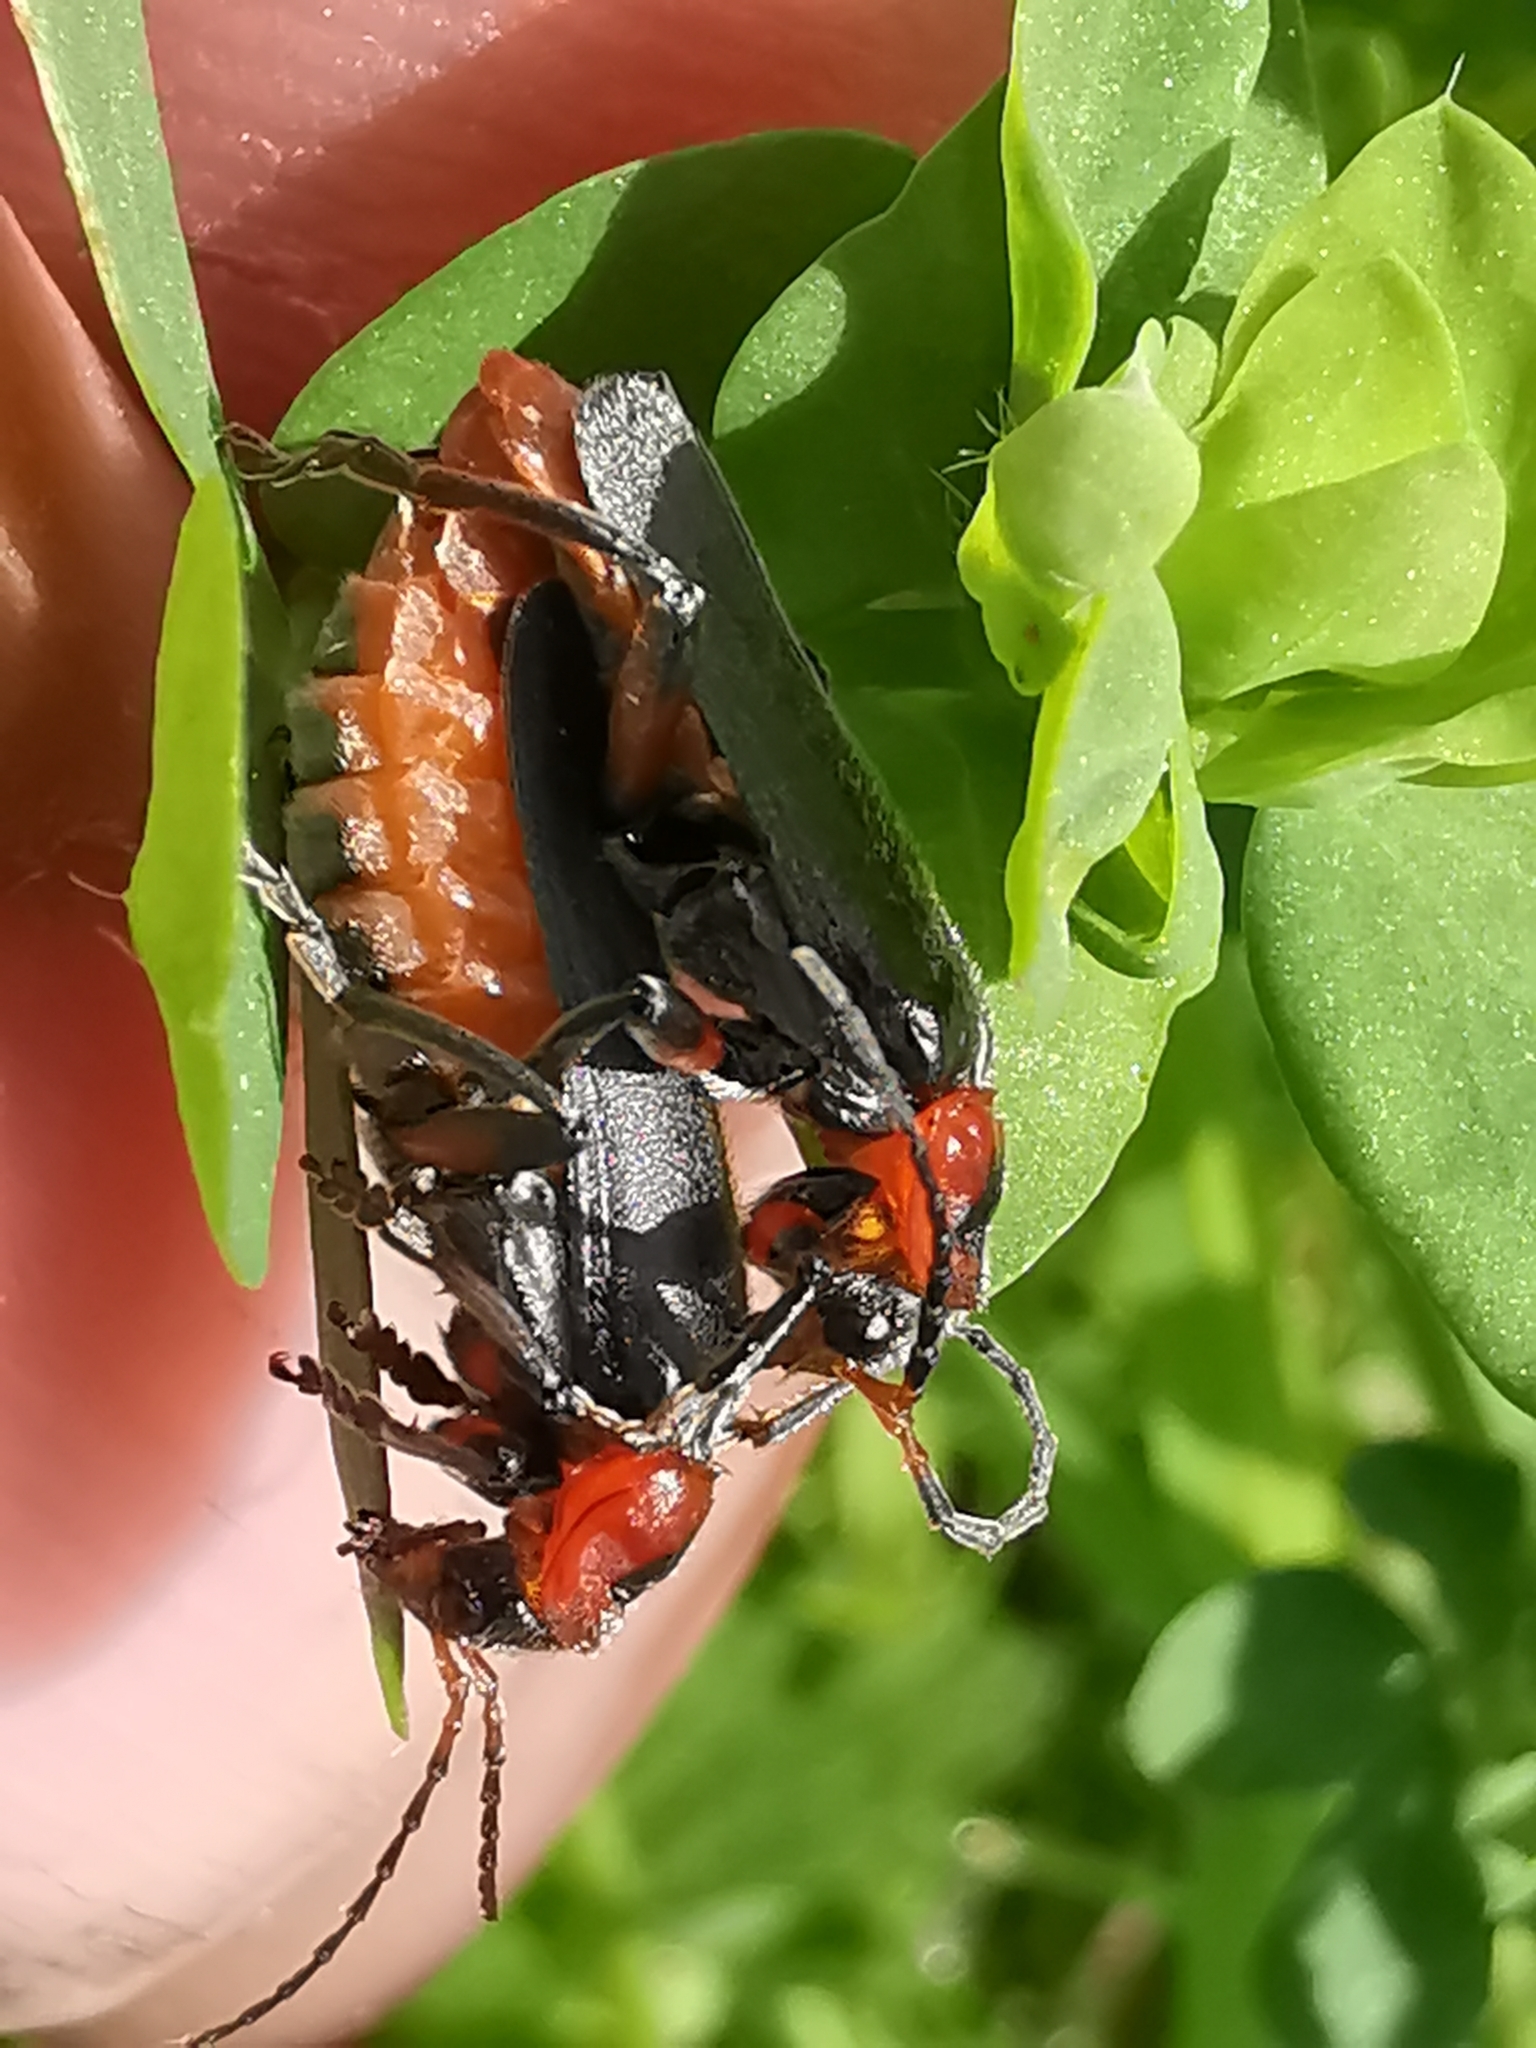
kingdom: Animalia
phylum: Arthropoda
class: Insecta
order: Coleoptera
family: Cantharidae
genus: Cantharis
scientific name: Cantharis rustica
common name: Soldier beetle
